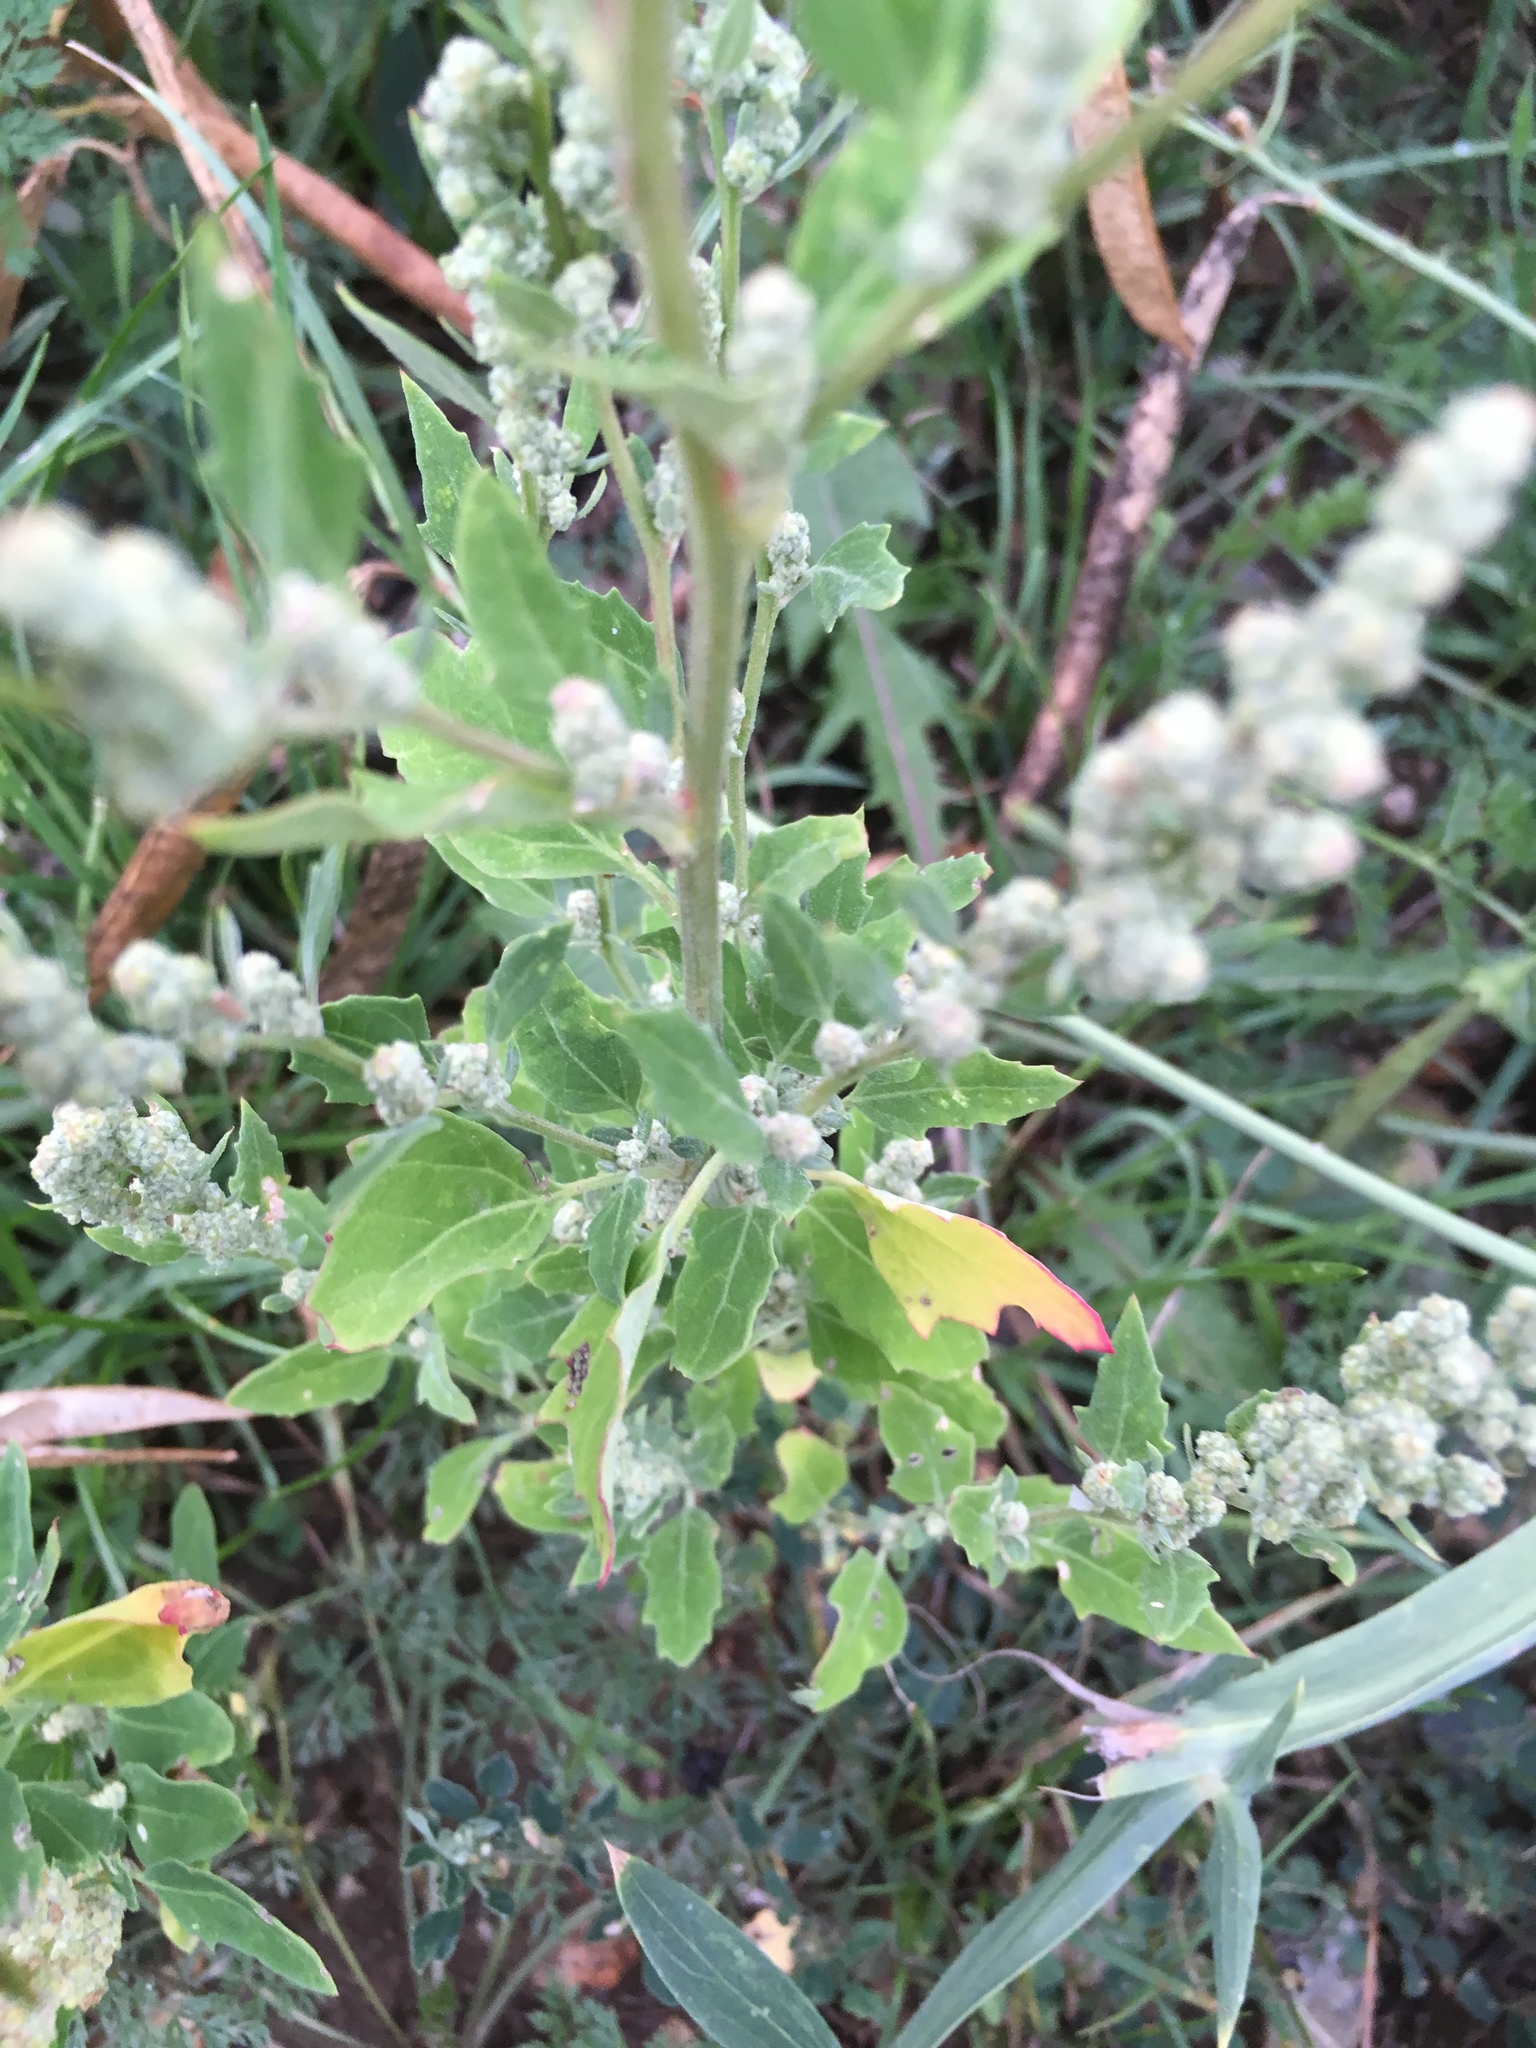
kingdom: Plantae
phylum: Tracheophyta
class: Magnoliopsida
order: Caryophyllales
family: Amaranthaceae
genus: Chenopodium
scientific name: Chenopodium album
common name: Fat-hen
